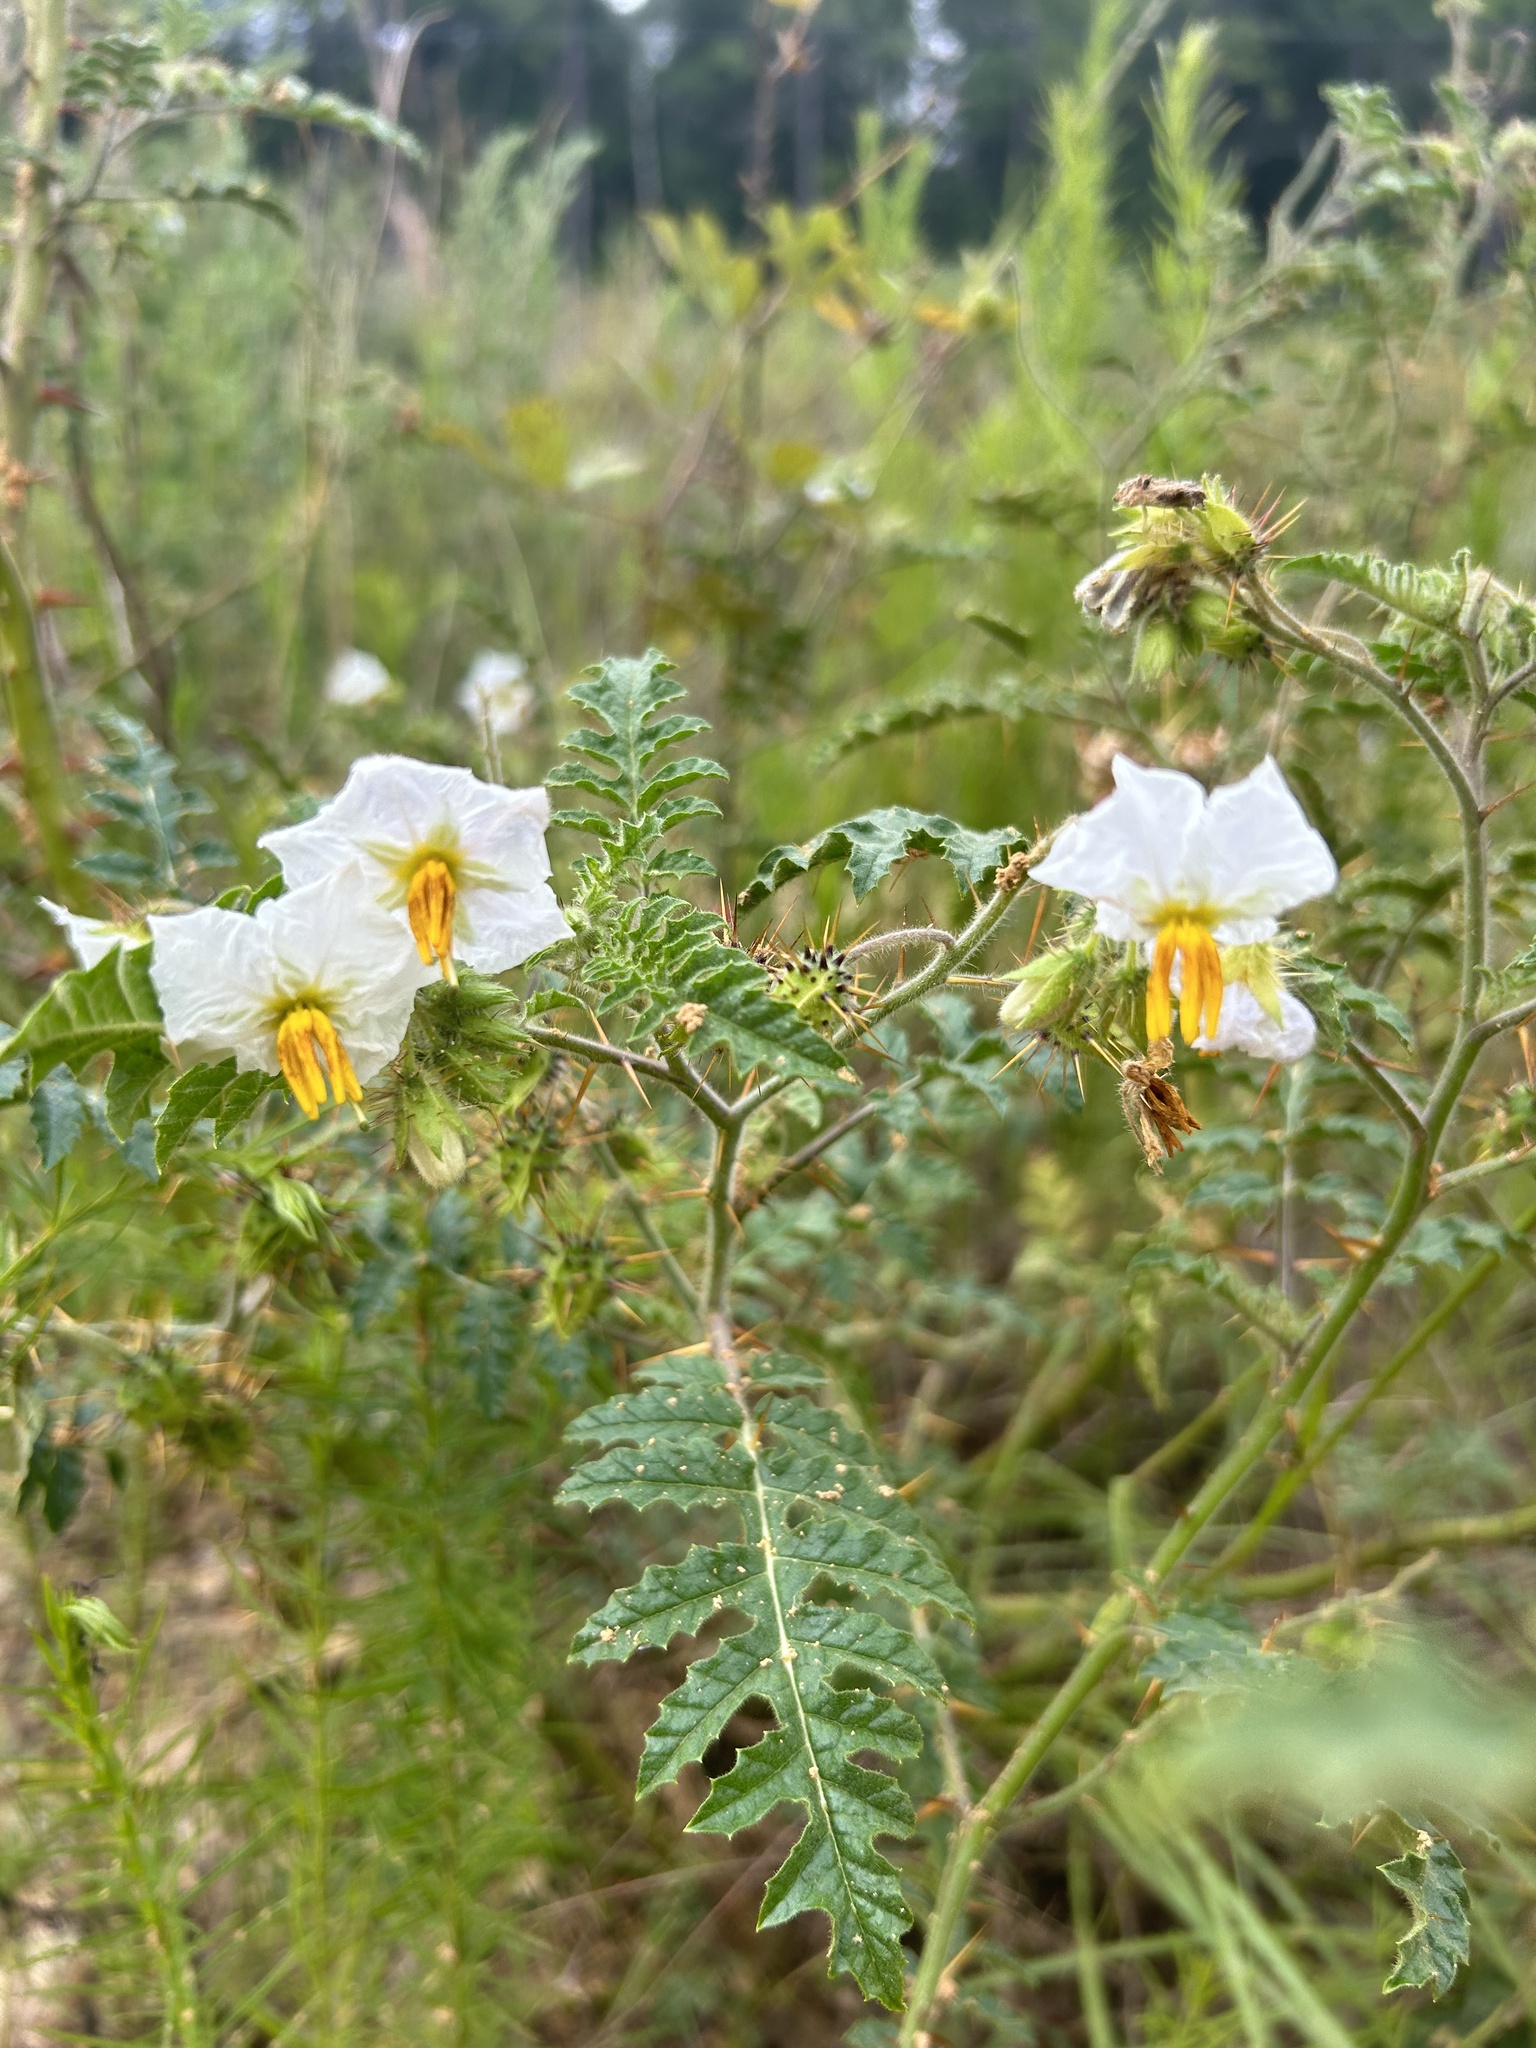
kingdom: Plantae
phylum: Tracheophyta
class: Magnoliopsida
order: Solanales
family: Solanaceae
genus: Solanum
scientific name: Solanum sisymbriifolium
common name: Red buffalo-bur
